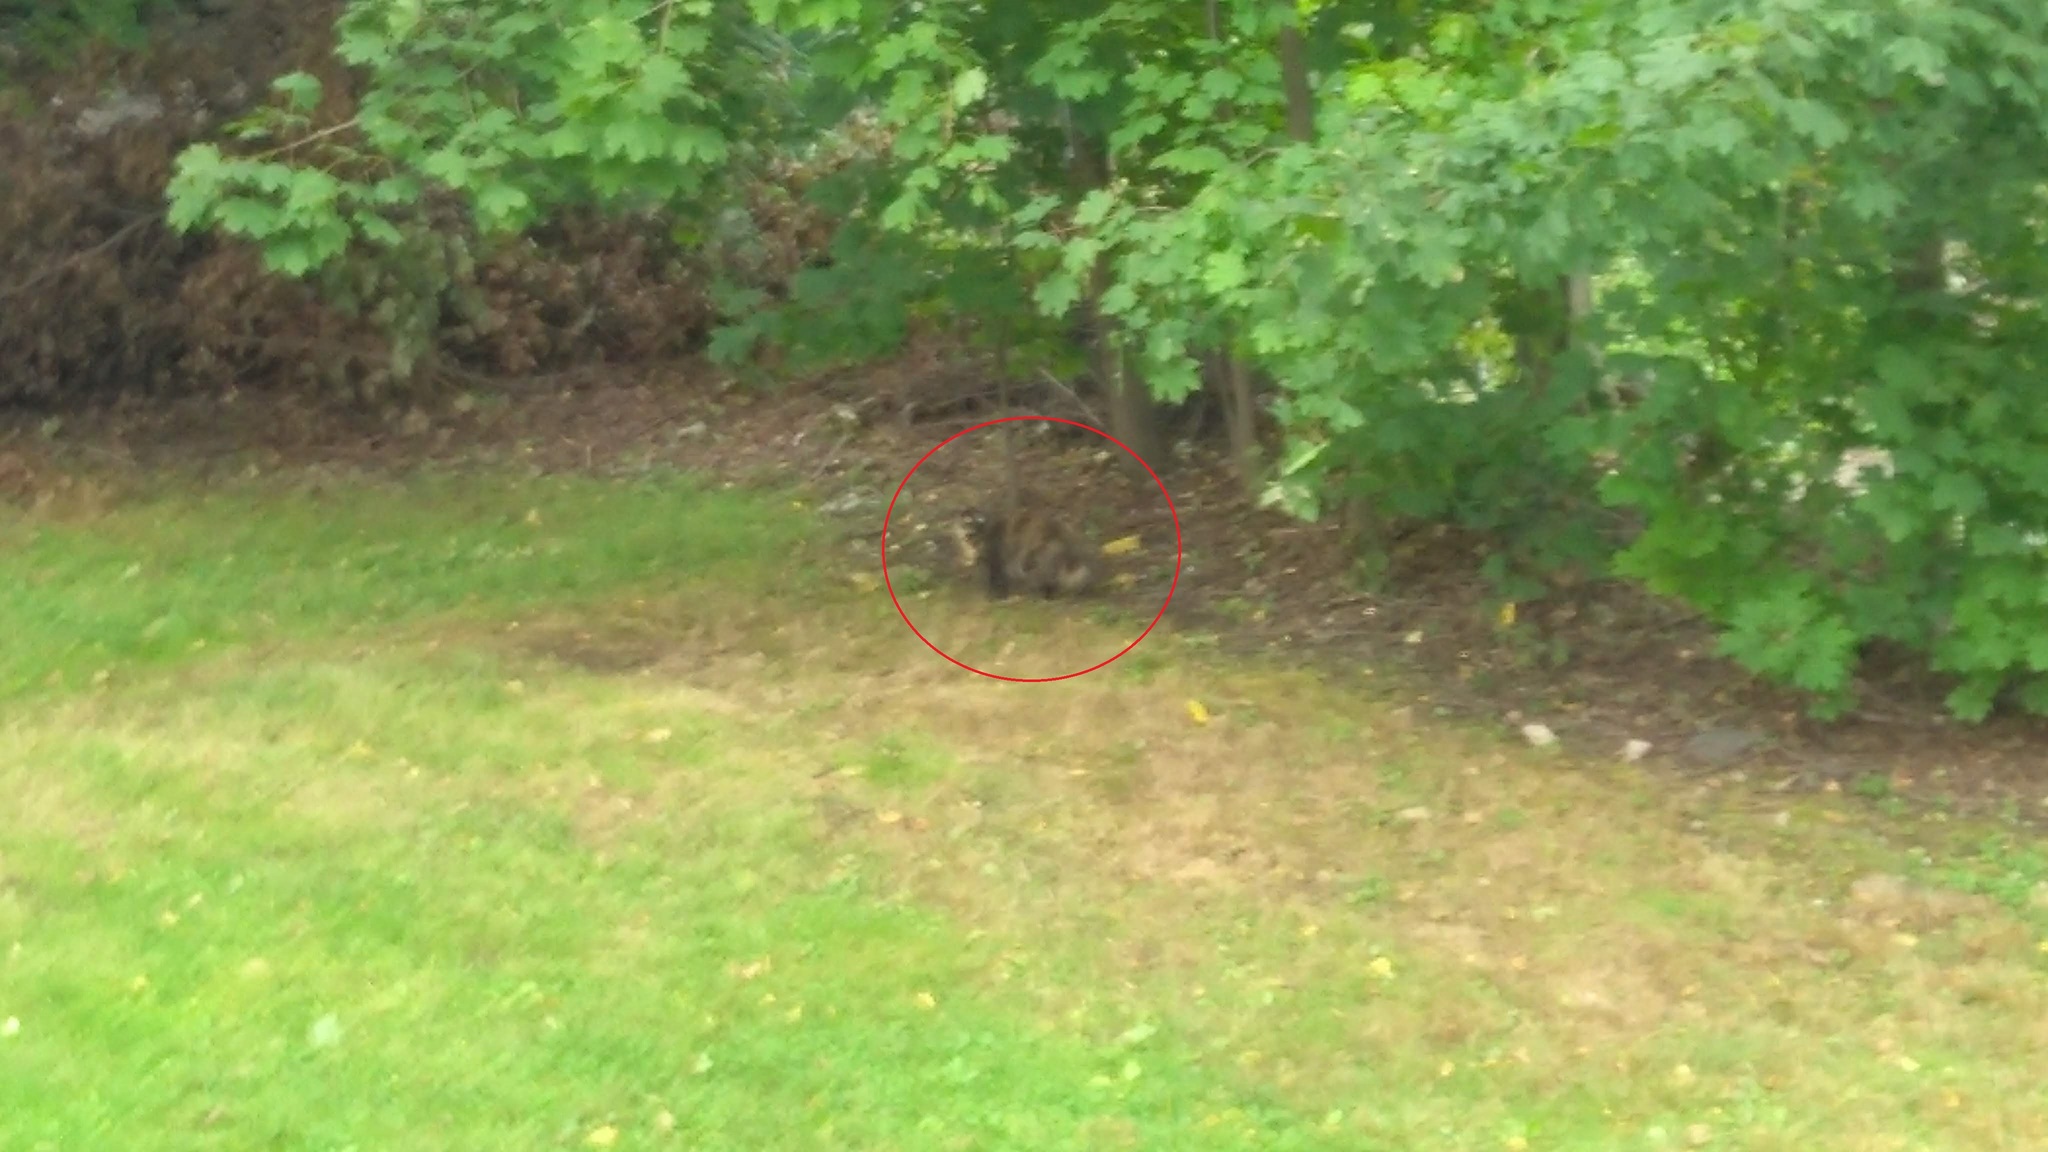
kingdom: Animalia
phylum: Chordata
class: Mammalia
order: Carnivora
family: Felidae
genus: Felis
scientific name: Felis catus
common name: Domestic cat
